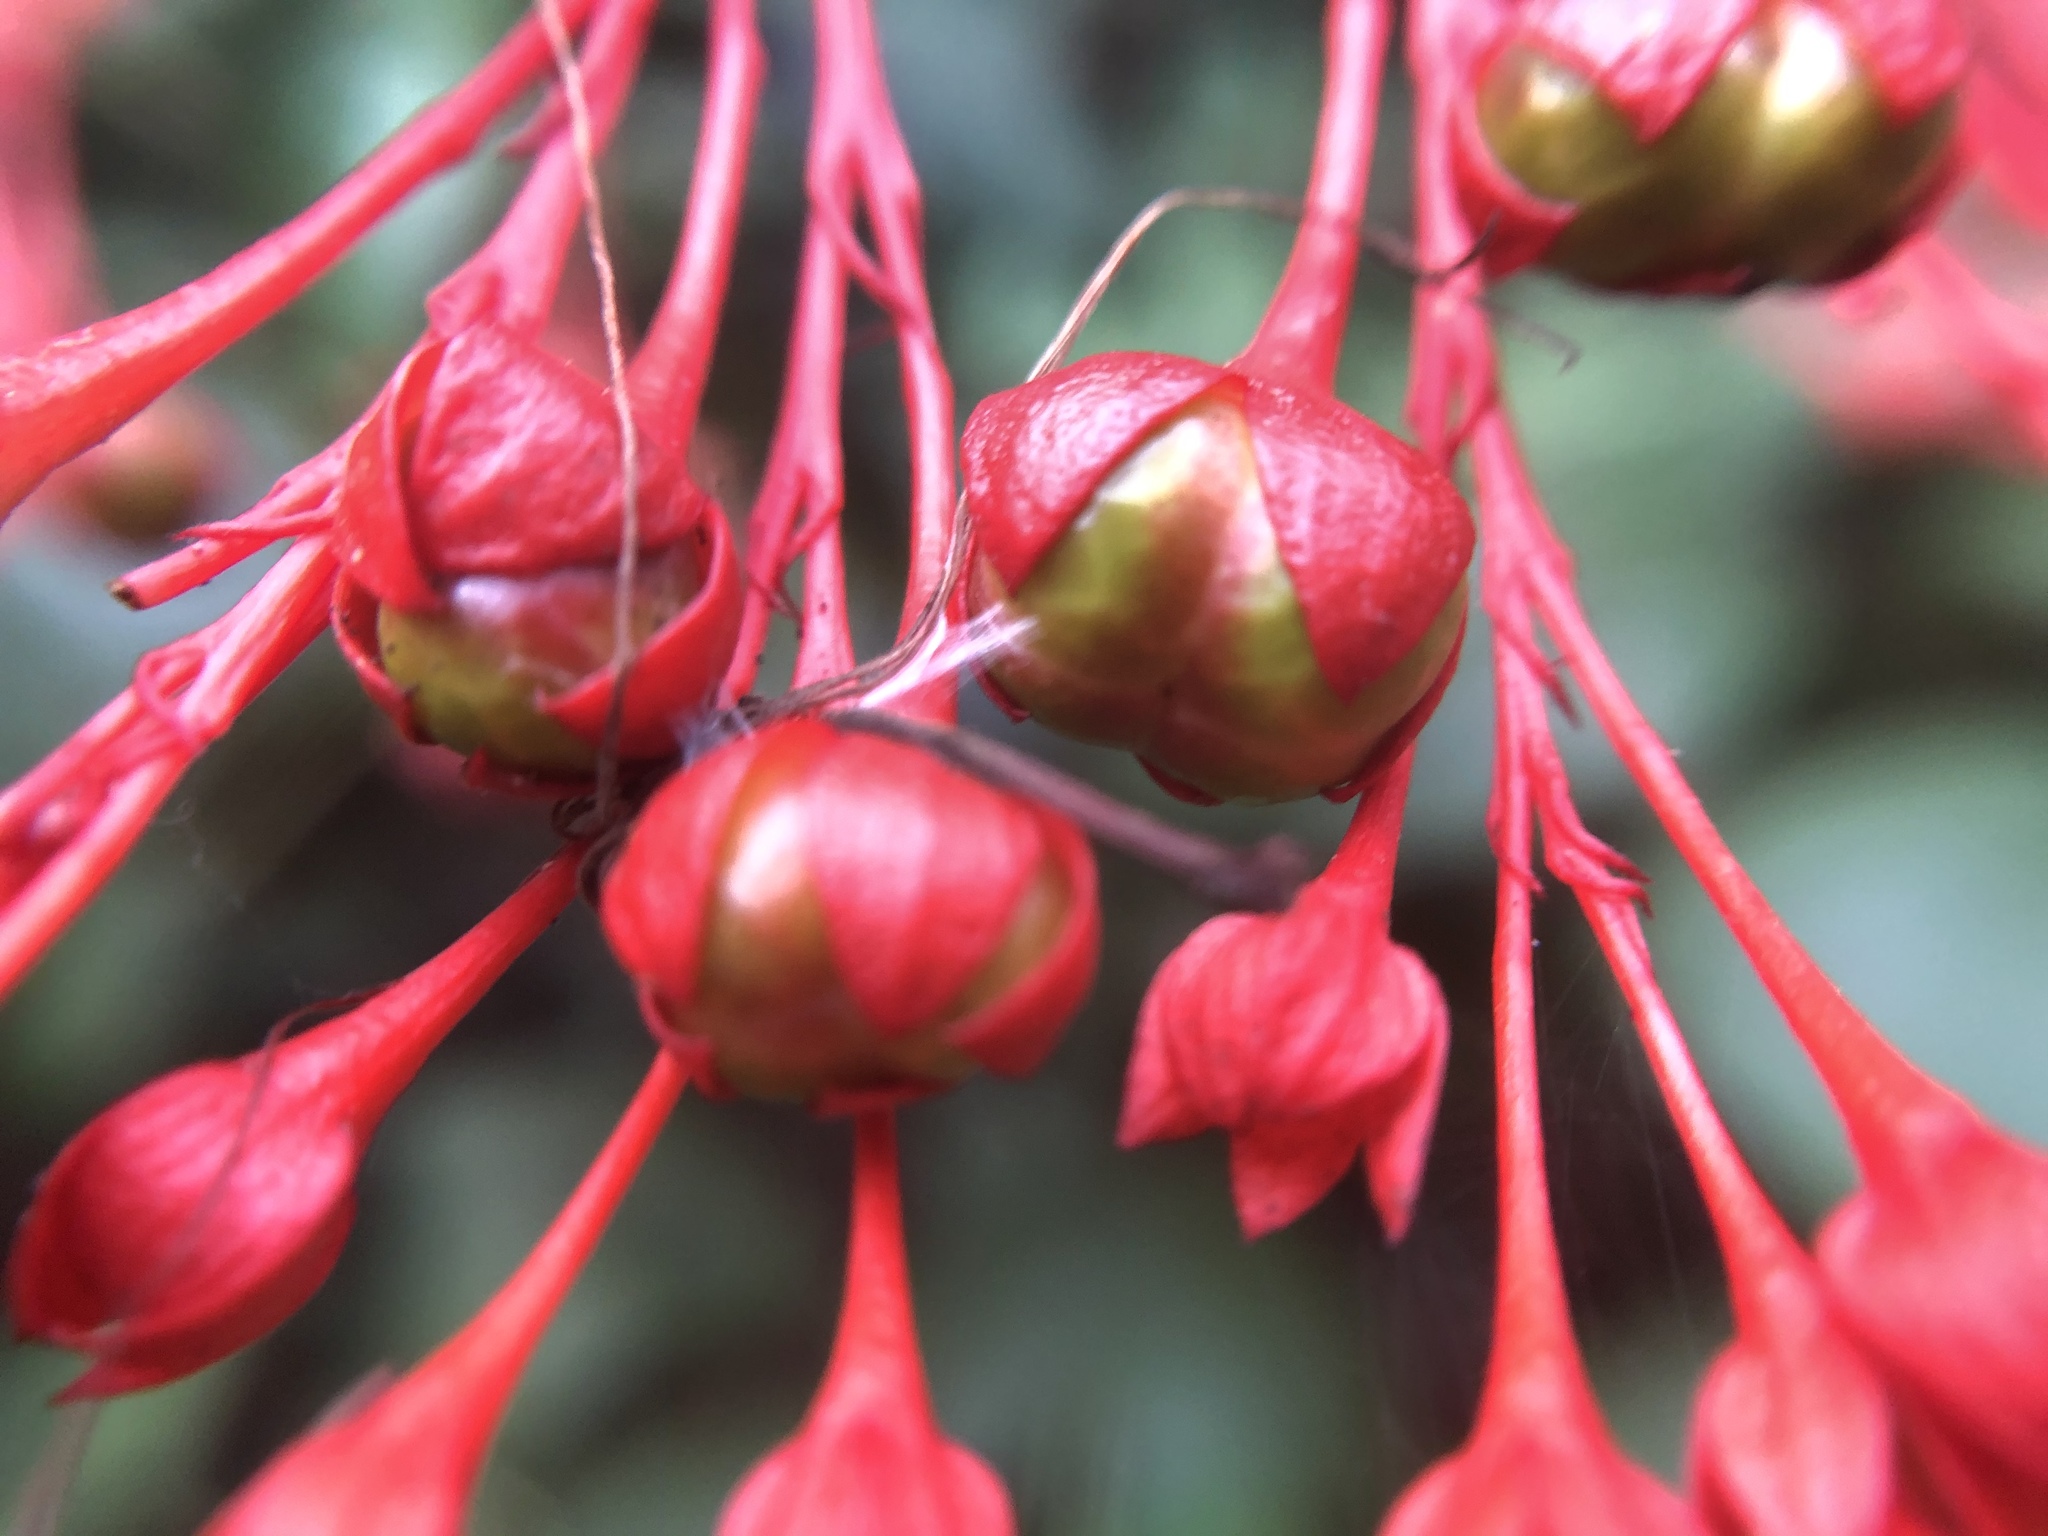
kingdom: Plantae
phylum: Tracheophyta
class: Magnoliopsida
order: Lamiales
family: Lamiaceae
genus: Clerodendrum
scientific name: Clerodendrum japonicum
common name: Japanese glorybower
